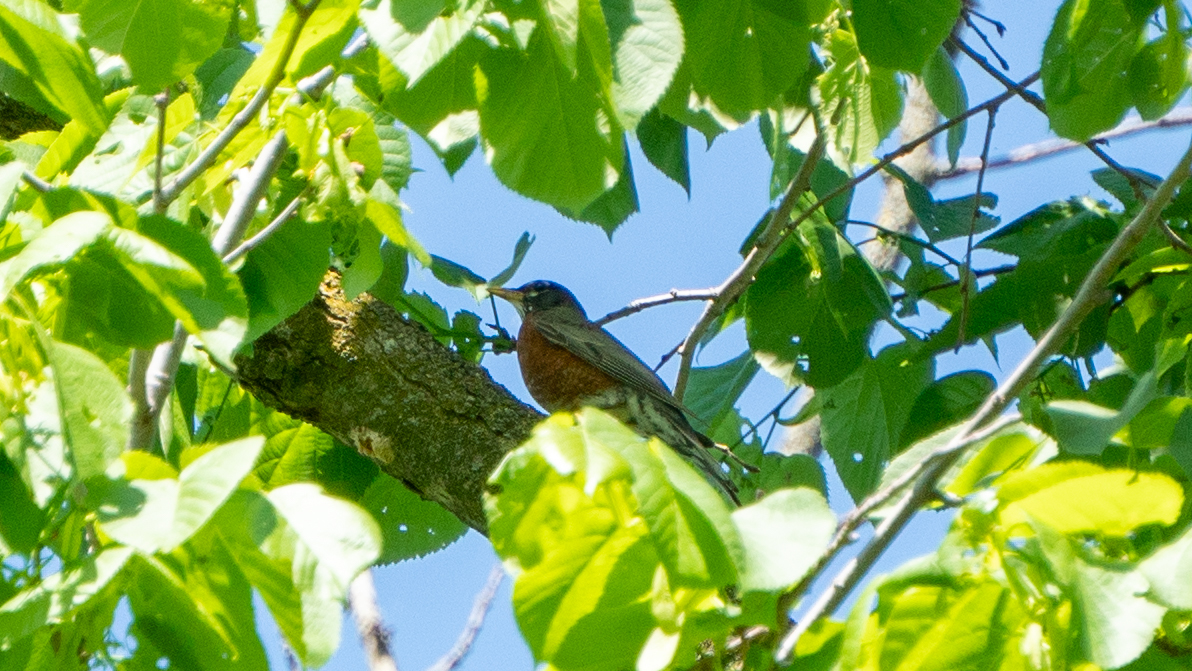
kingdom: Animalia
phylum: Chordata
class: Aves
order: Passeriformes
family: Turdidae
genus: Turdus
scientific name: Turdus migratorius
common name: American robin
